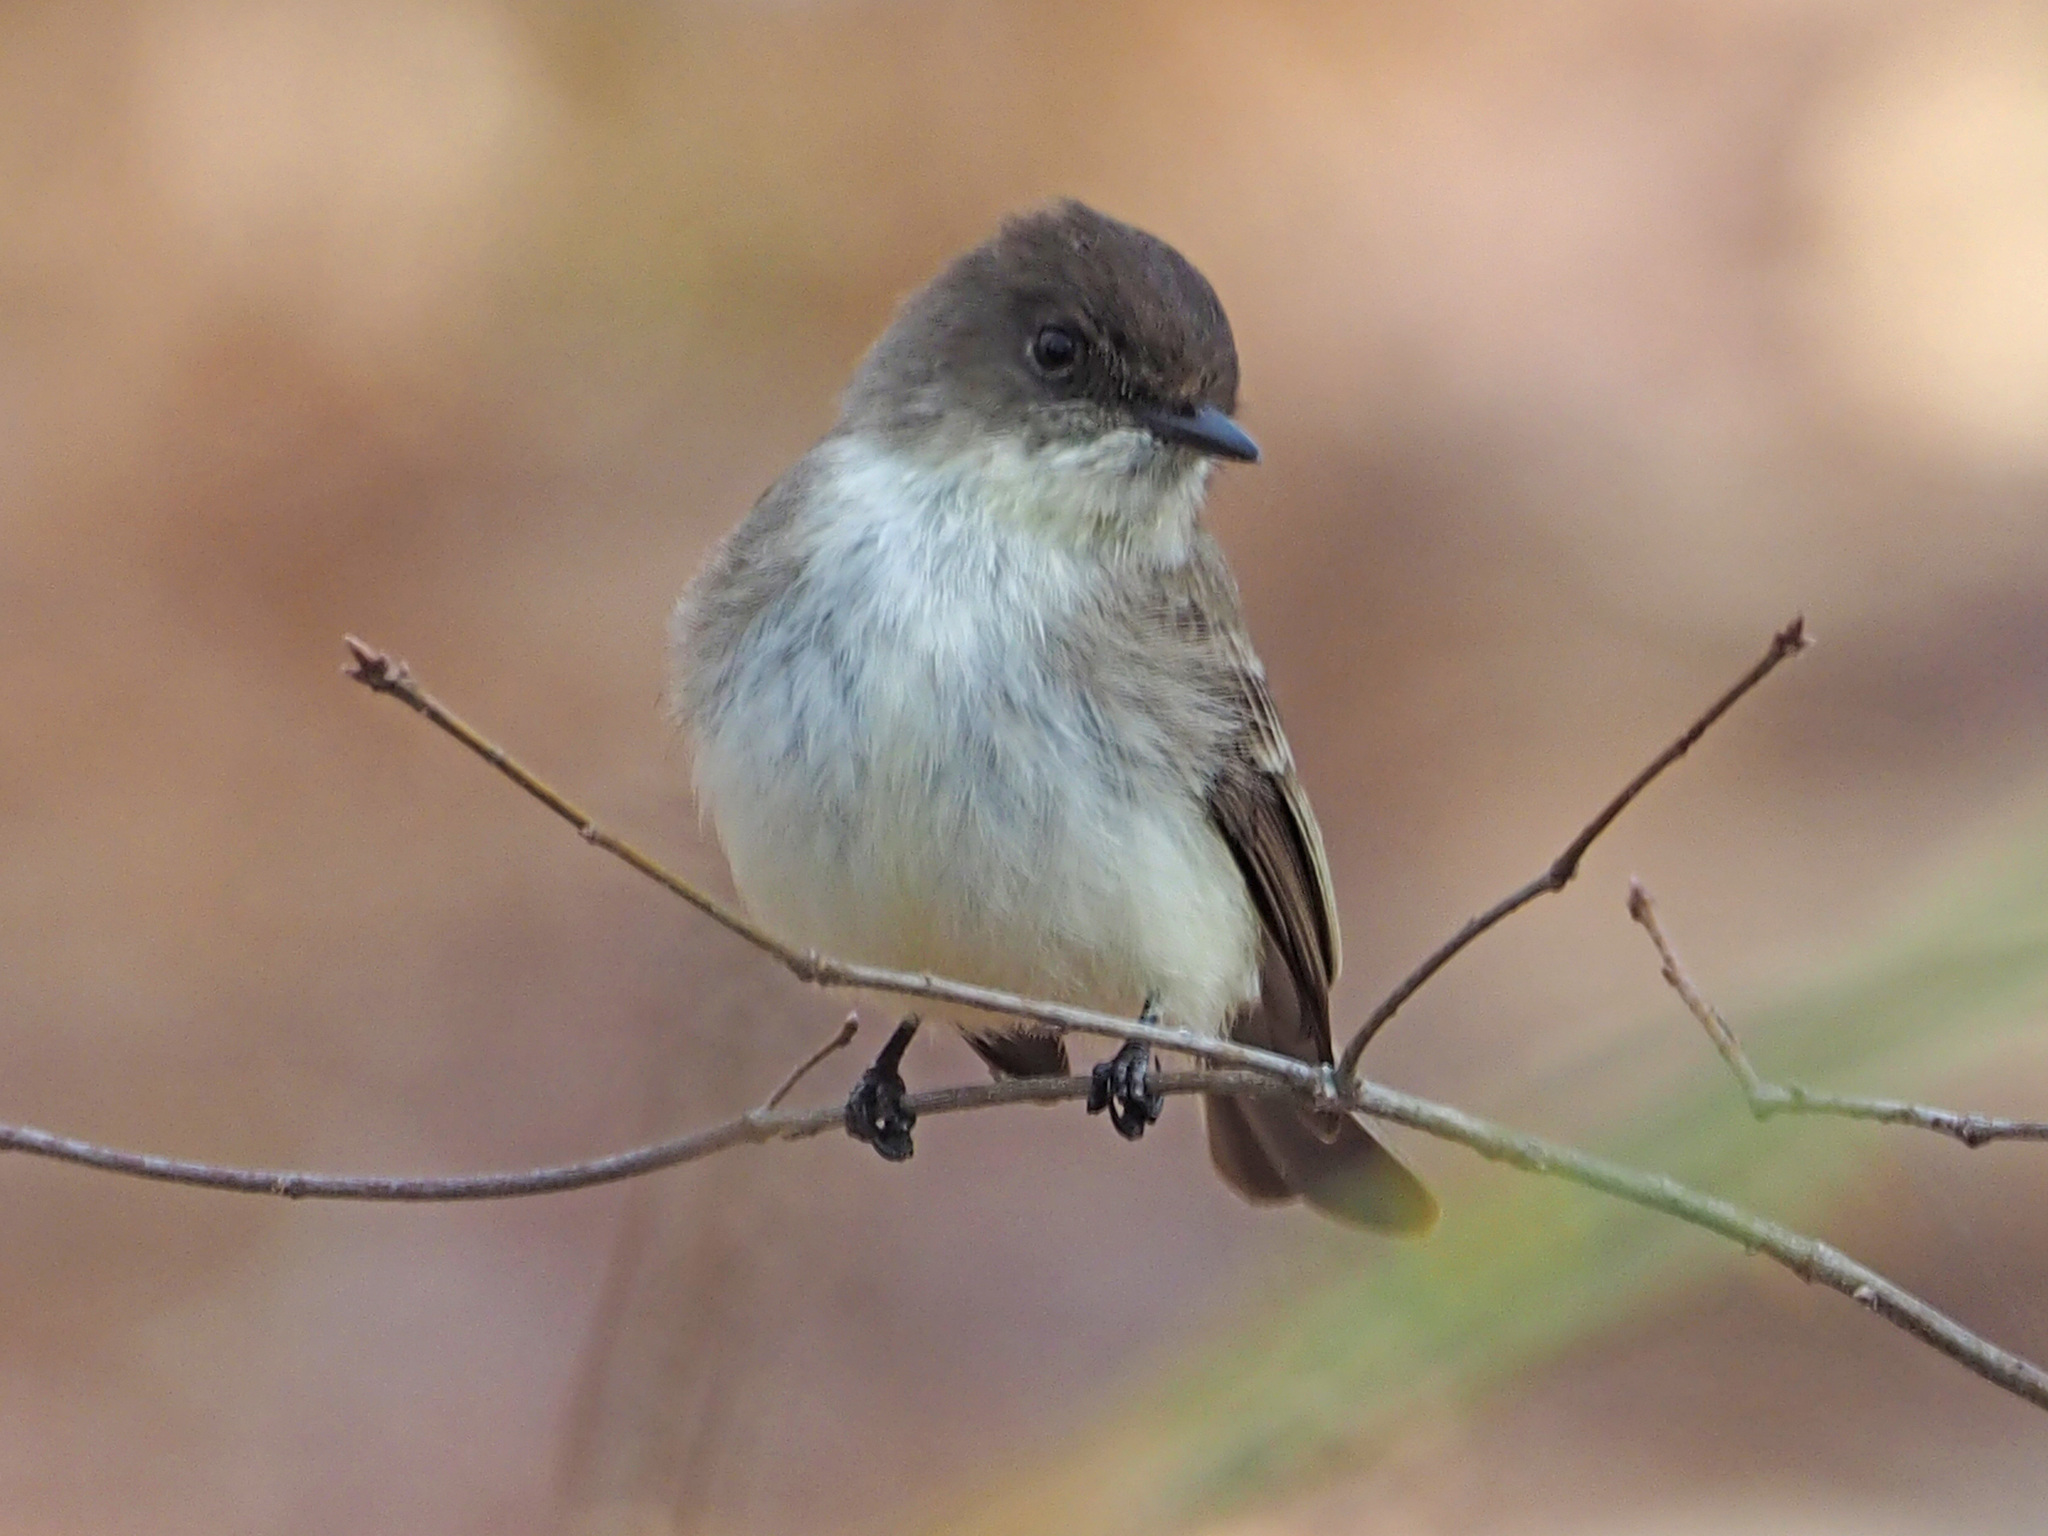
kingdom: Animalia
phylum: Chordata
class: Aves
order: Passeriformes
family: Tyrannidae
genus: Sayornis
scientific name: Sayornis phoebe
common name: Eastern phoebe
